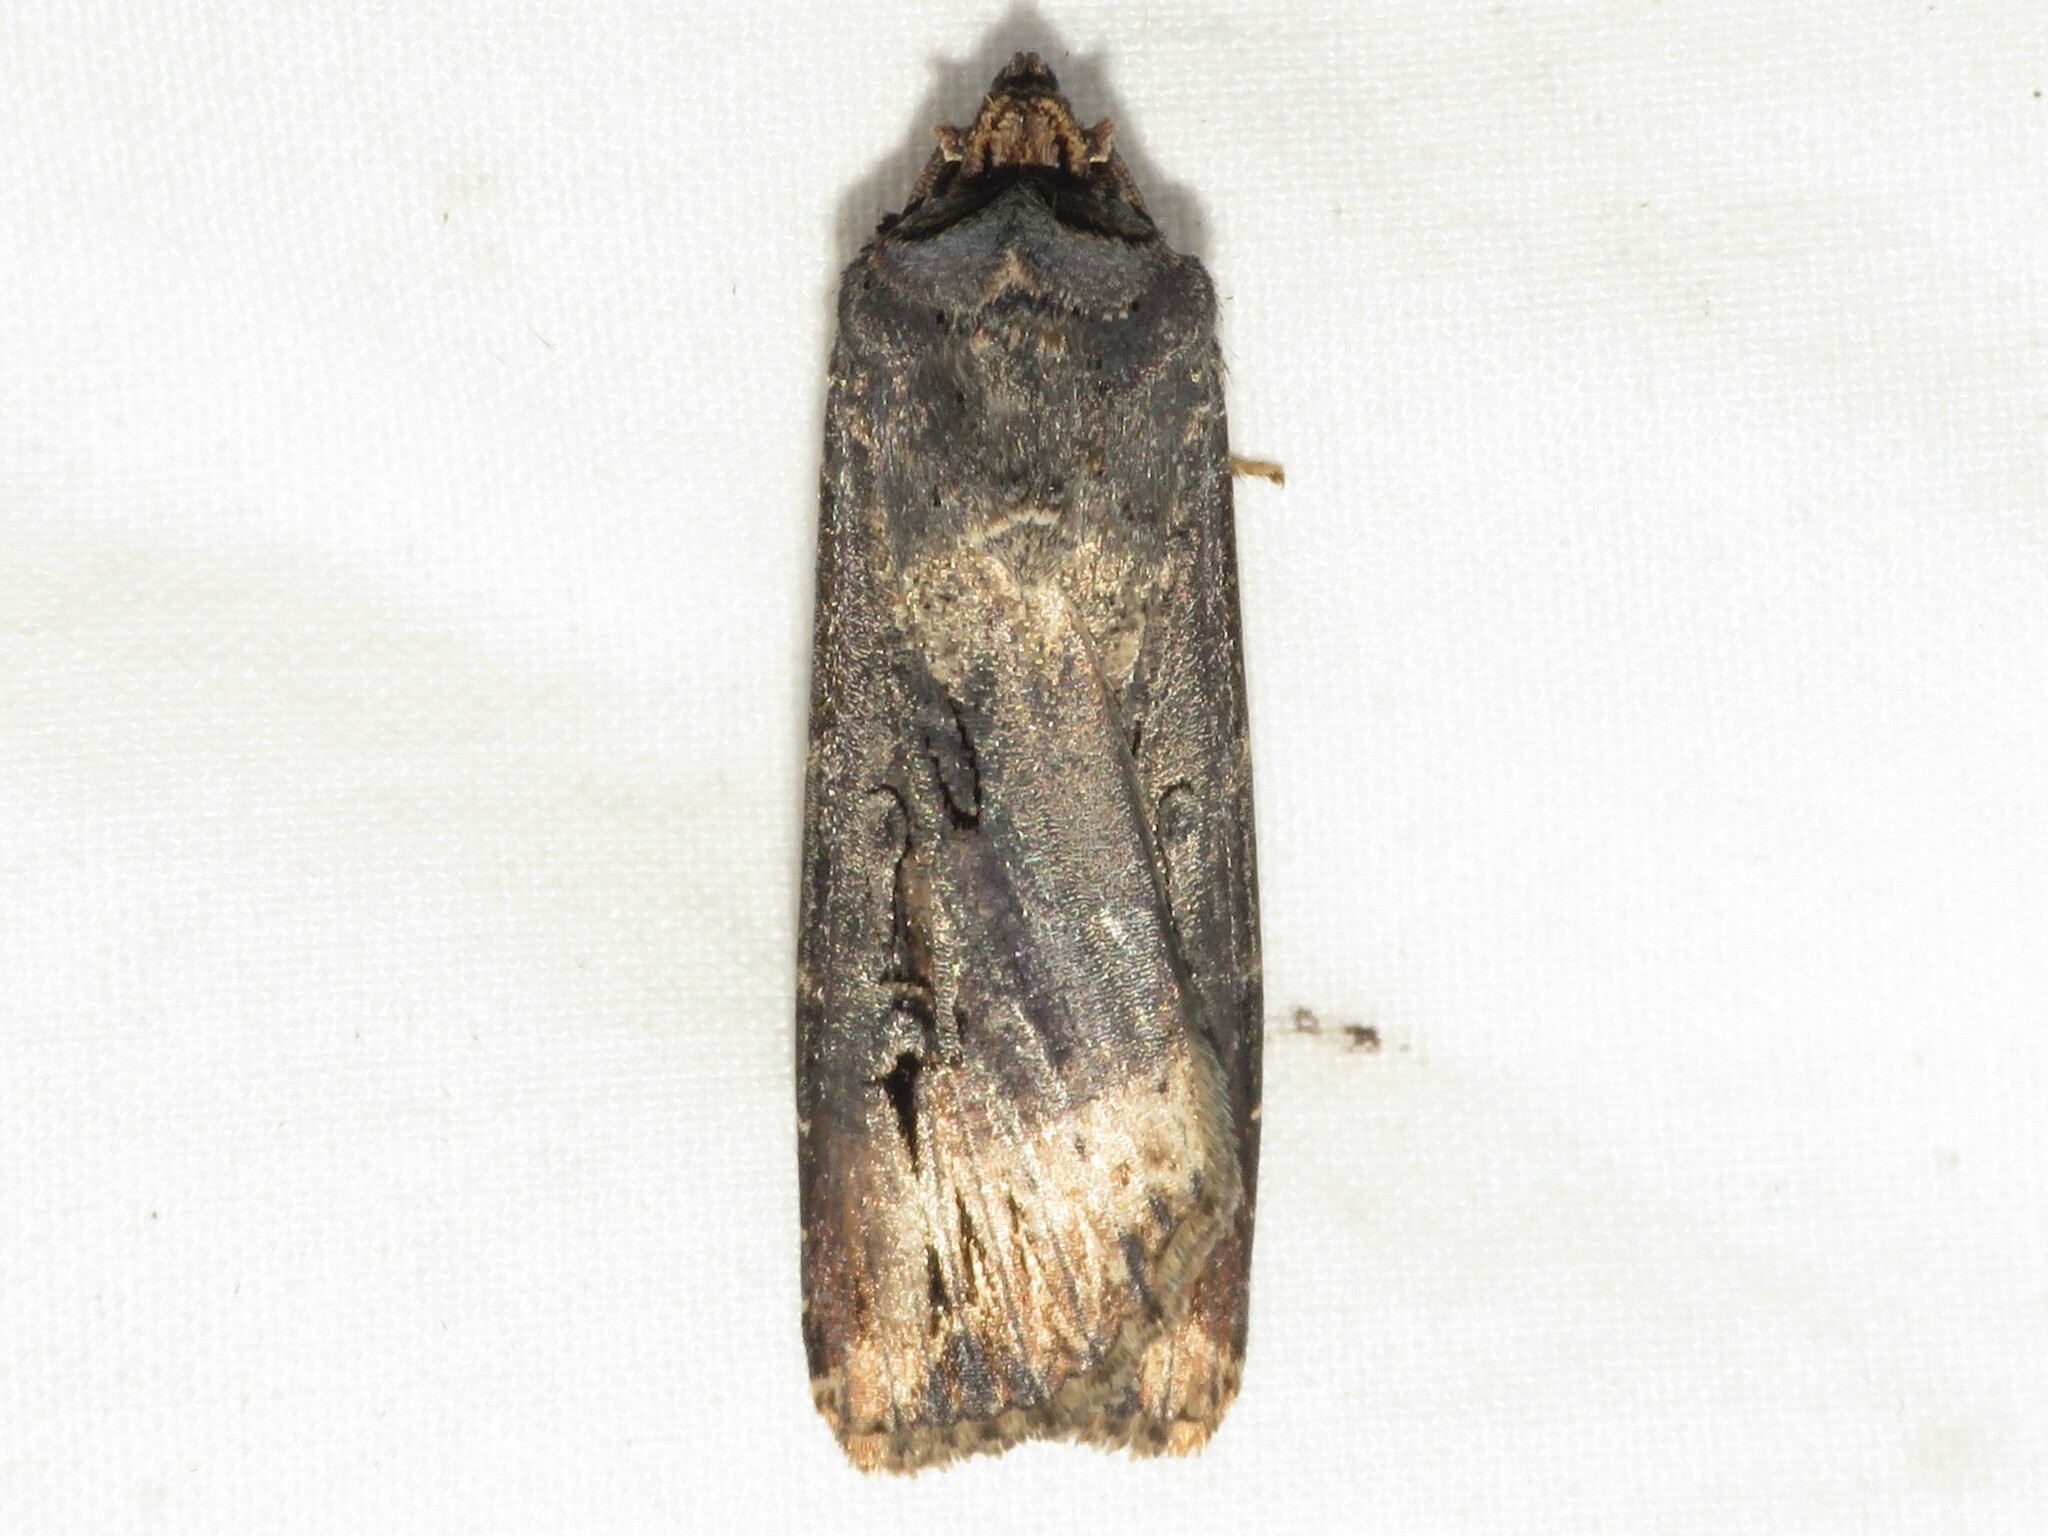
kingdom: Animalia
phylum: Arthropoda
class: Insecta
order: Lepidoptera
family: Noctuidae
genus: Agrotis
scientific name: Agrotis ipsilon
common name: Dark sword-grass
